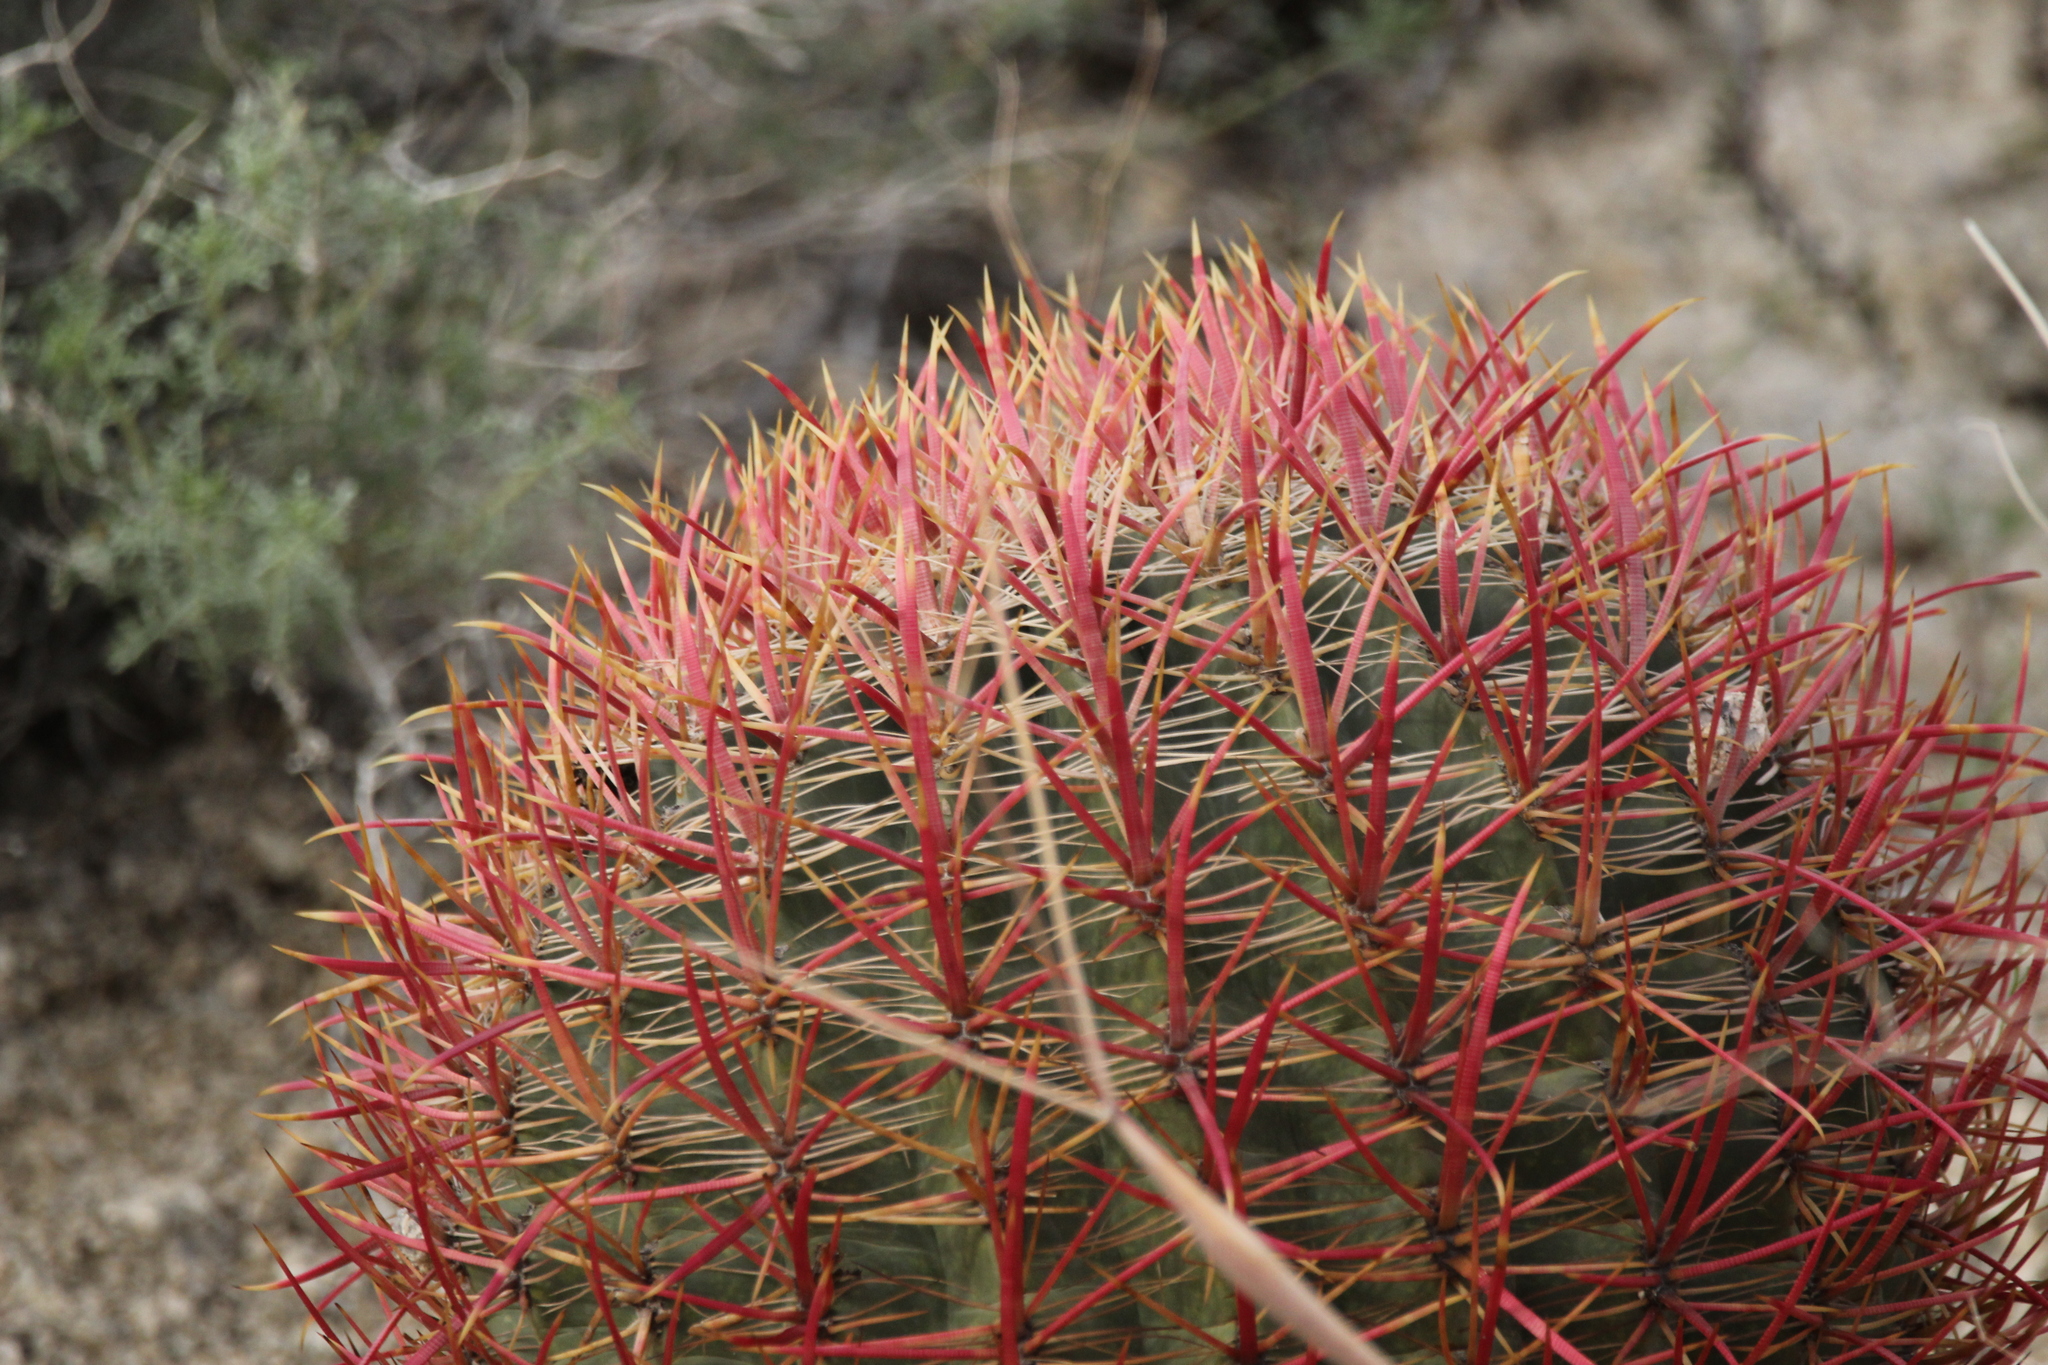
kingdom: Plantae
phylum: Tracheophyta
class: Magnoliopsida
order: Caryophyllales
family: Cactaceae
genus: Ferocactus
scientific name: Ferocactus cylindraceus
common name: California barrel cactus
